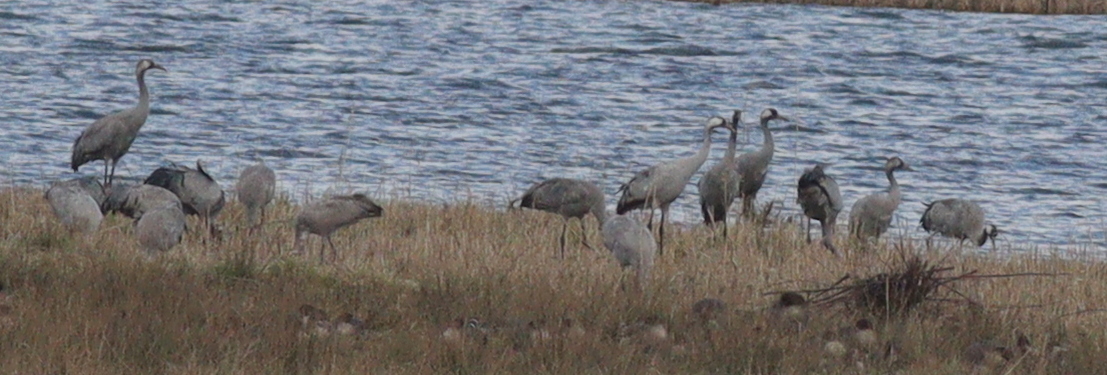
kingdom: Animalia
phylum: Chordata
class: Aves
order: Gruiformes
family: Gruidae
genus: Grus
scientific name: Grus grus
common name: Common crane
